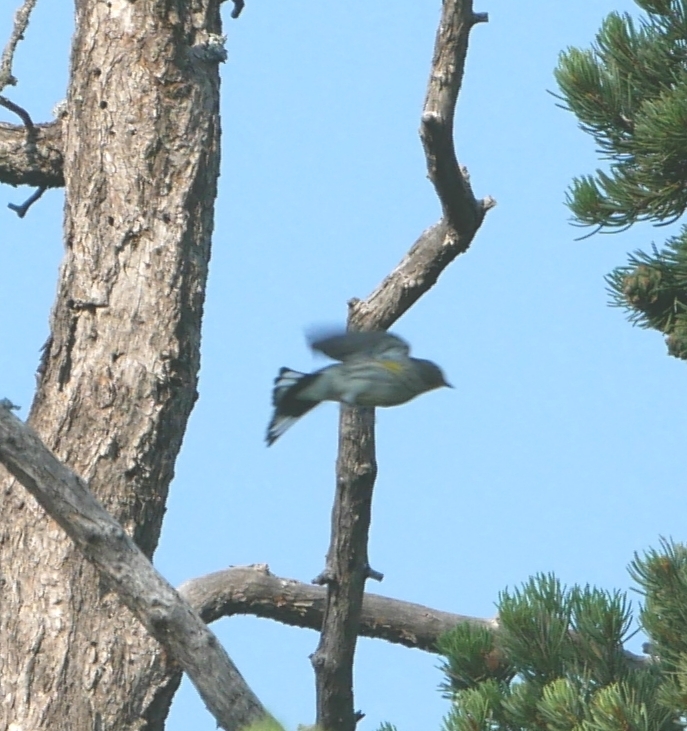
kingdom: Animalia
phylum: Chordata
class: Aves
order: Passeriformes
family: Parulidae
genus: Setophaga
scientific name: Setophaga coronata
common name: Myrtle warbler
